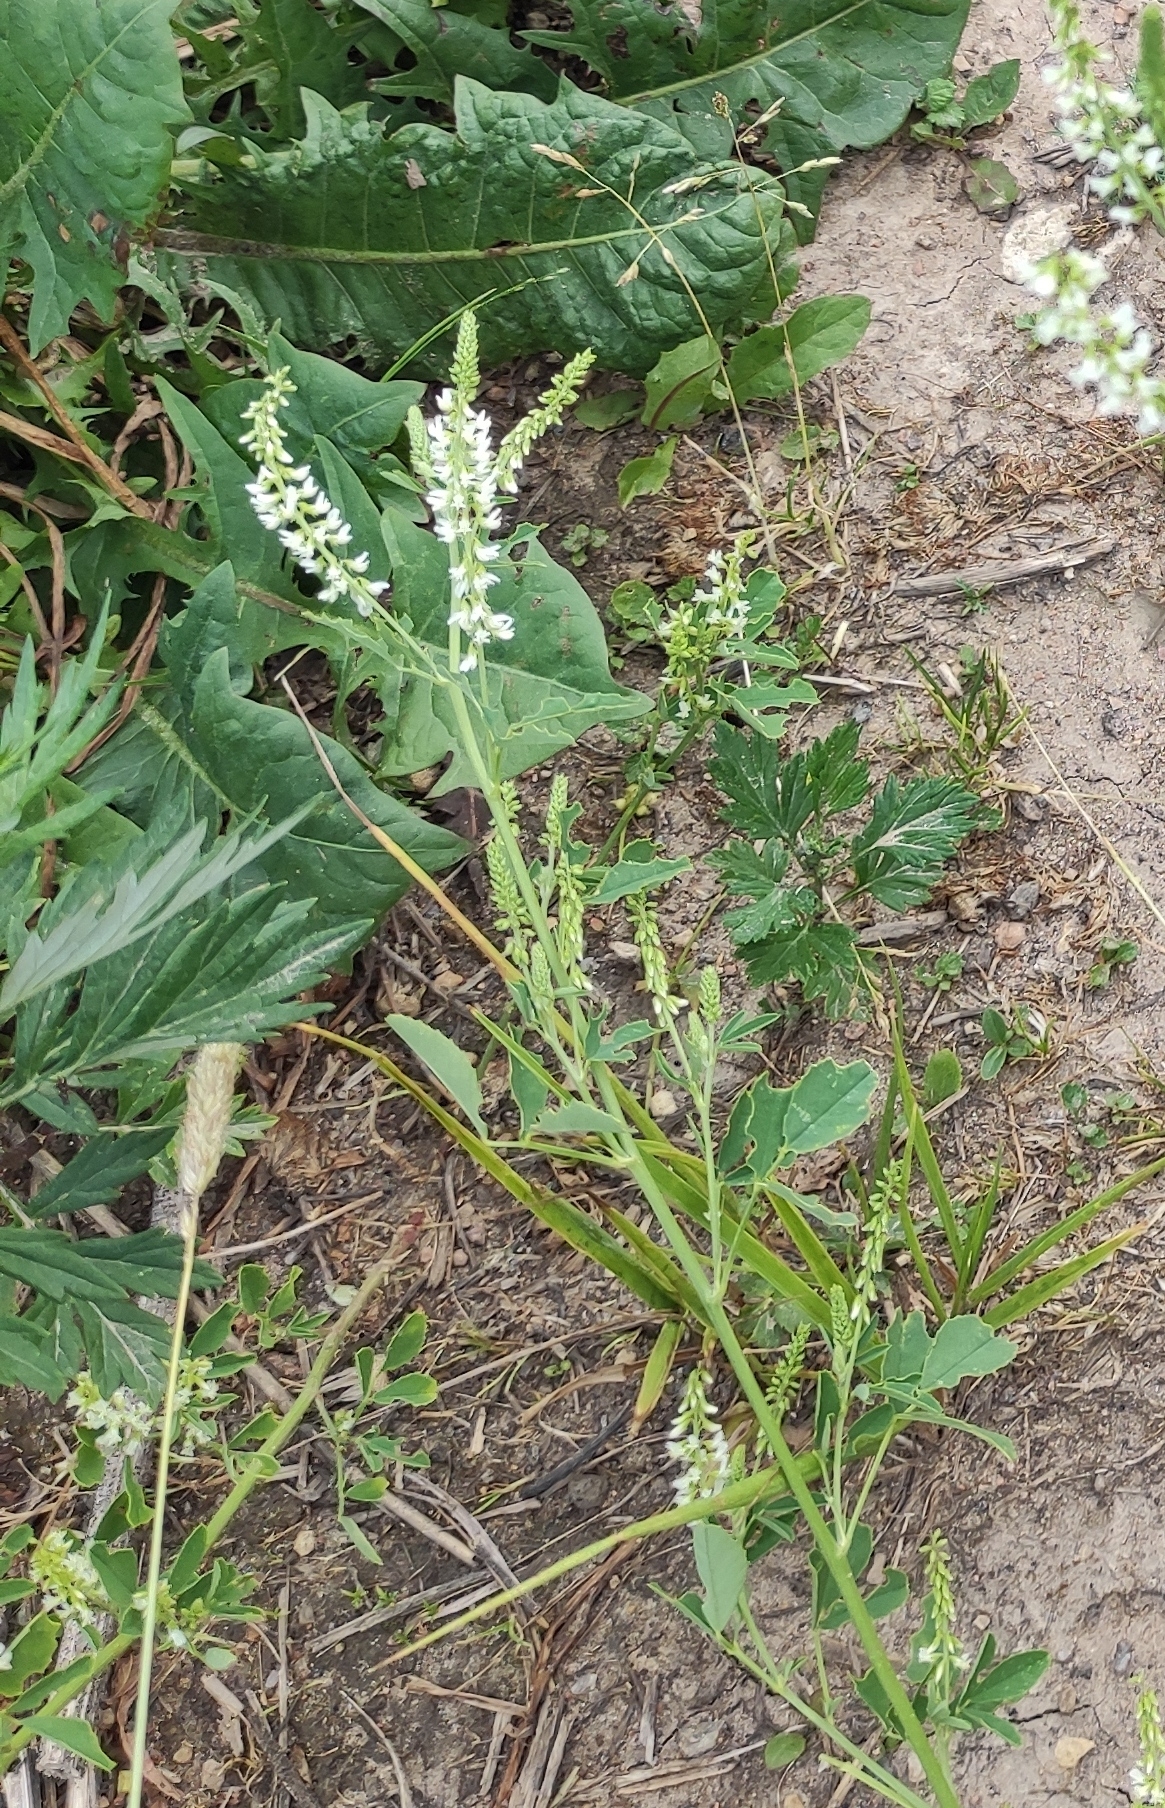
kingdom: Plantae
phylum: Tracheophyta
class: Magnoliopsida
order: Fabales
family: Fabaceae
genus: Melilotus
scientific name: Melilotus albus
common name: White melilot
